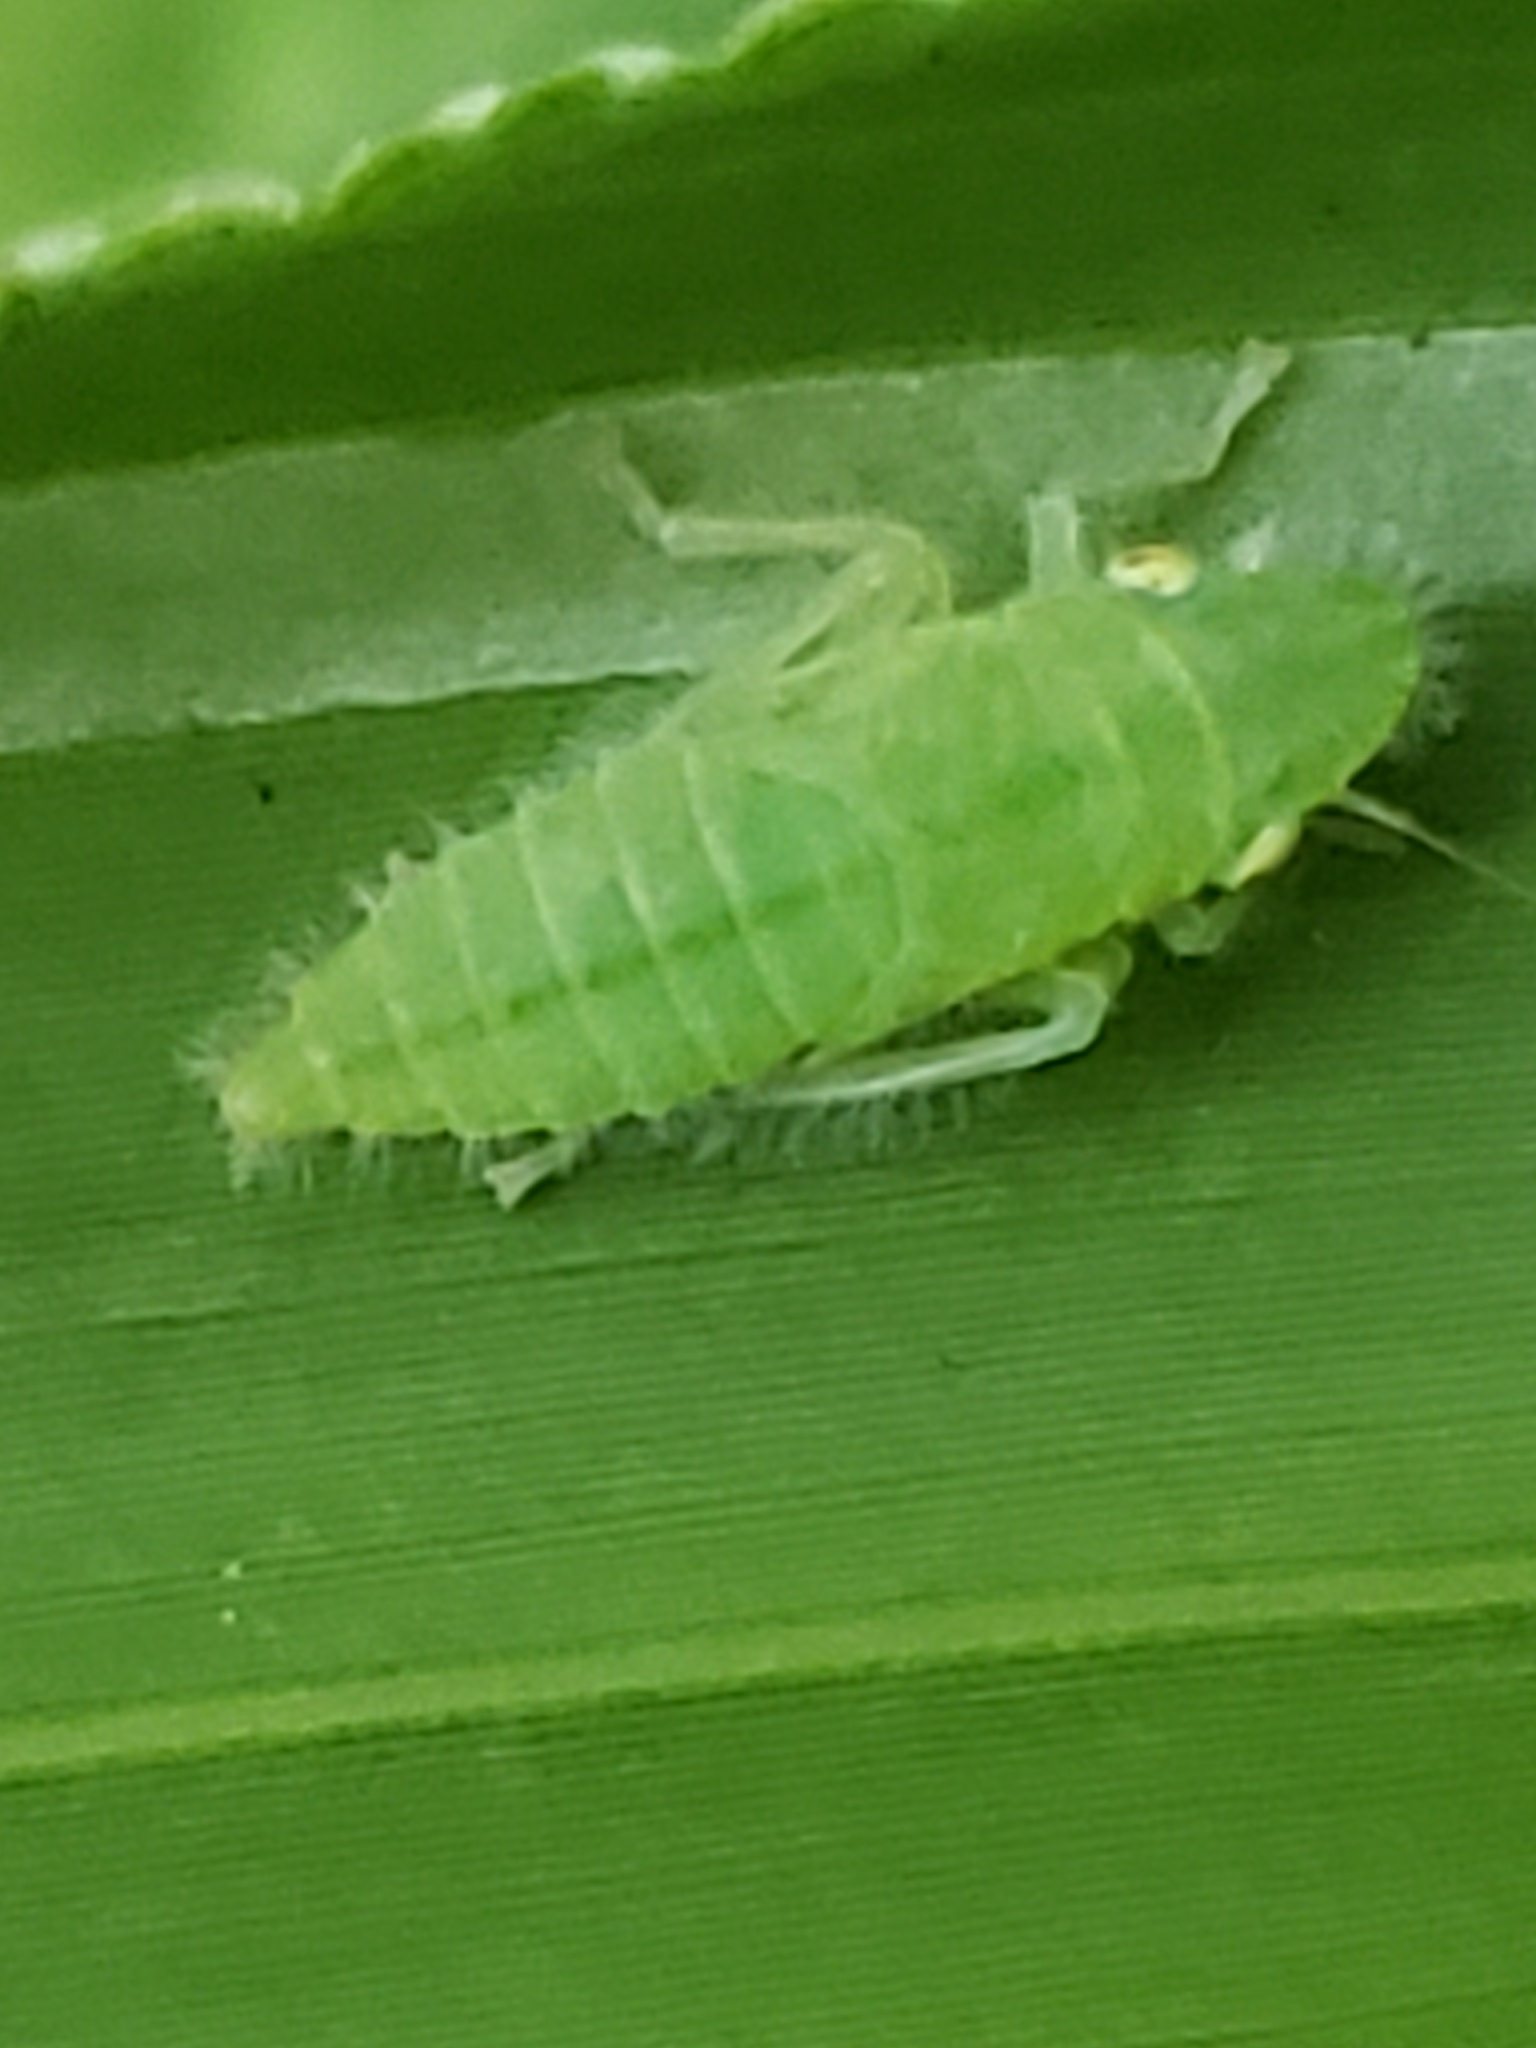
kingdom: Animalia
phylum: Arthropoda
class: Insecta
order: Hemiptera
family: Cicadellidae
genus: Paraulacizes
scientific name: Paraulacizes irrorata
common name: Speckled sharpshooter
